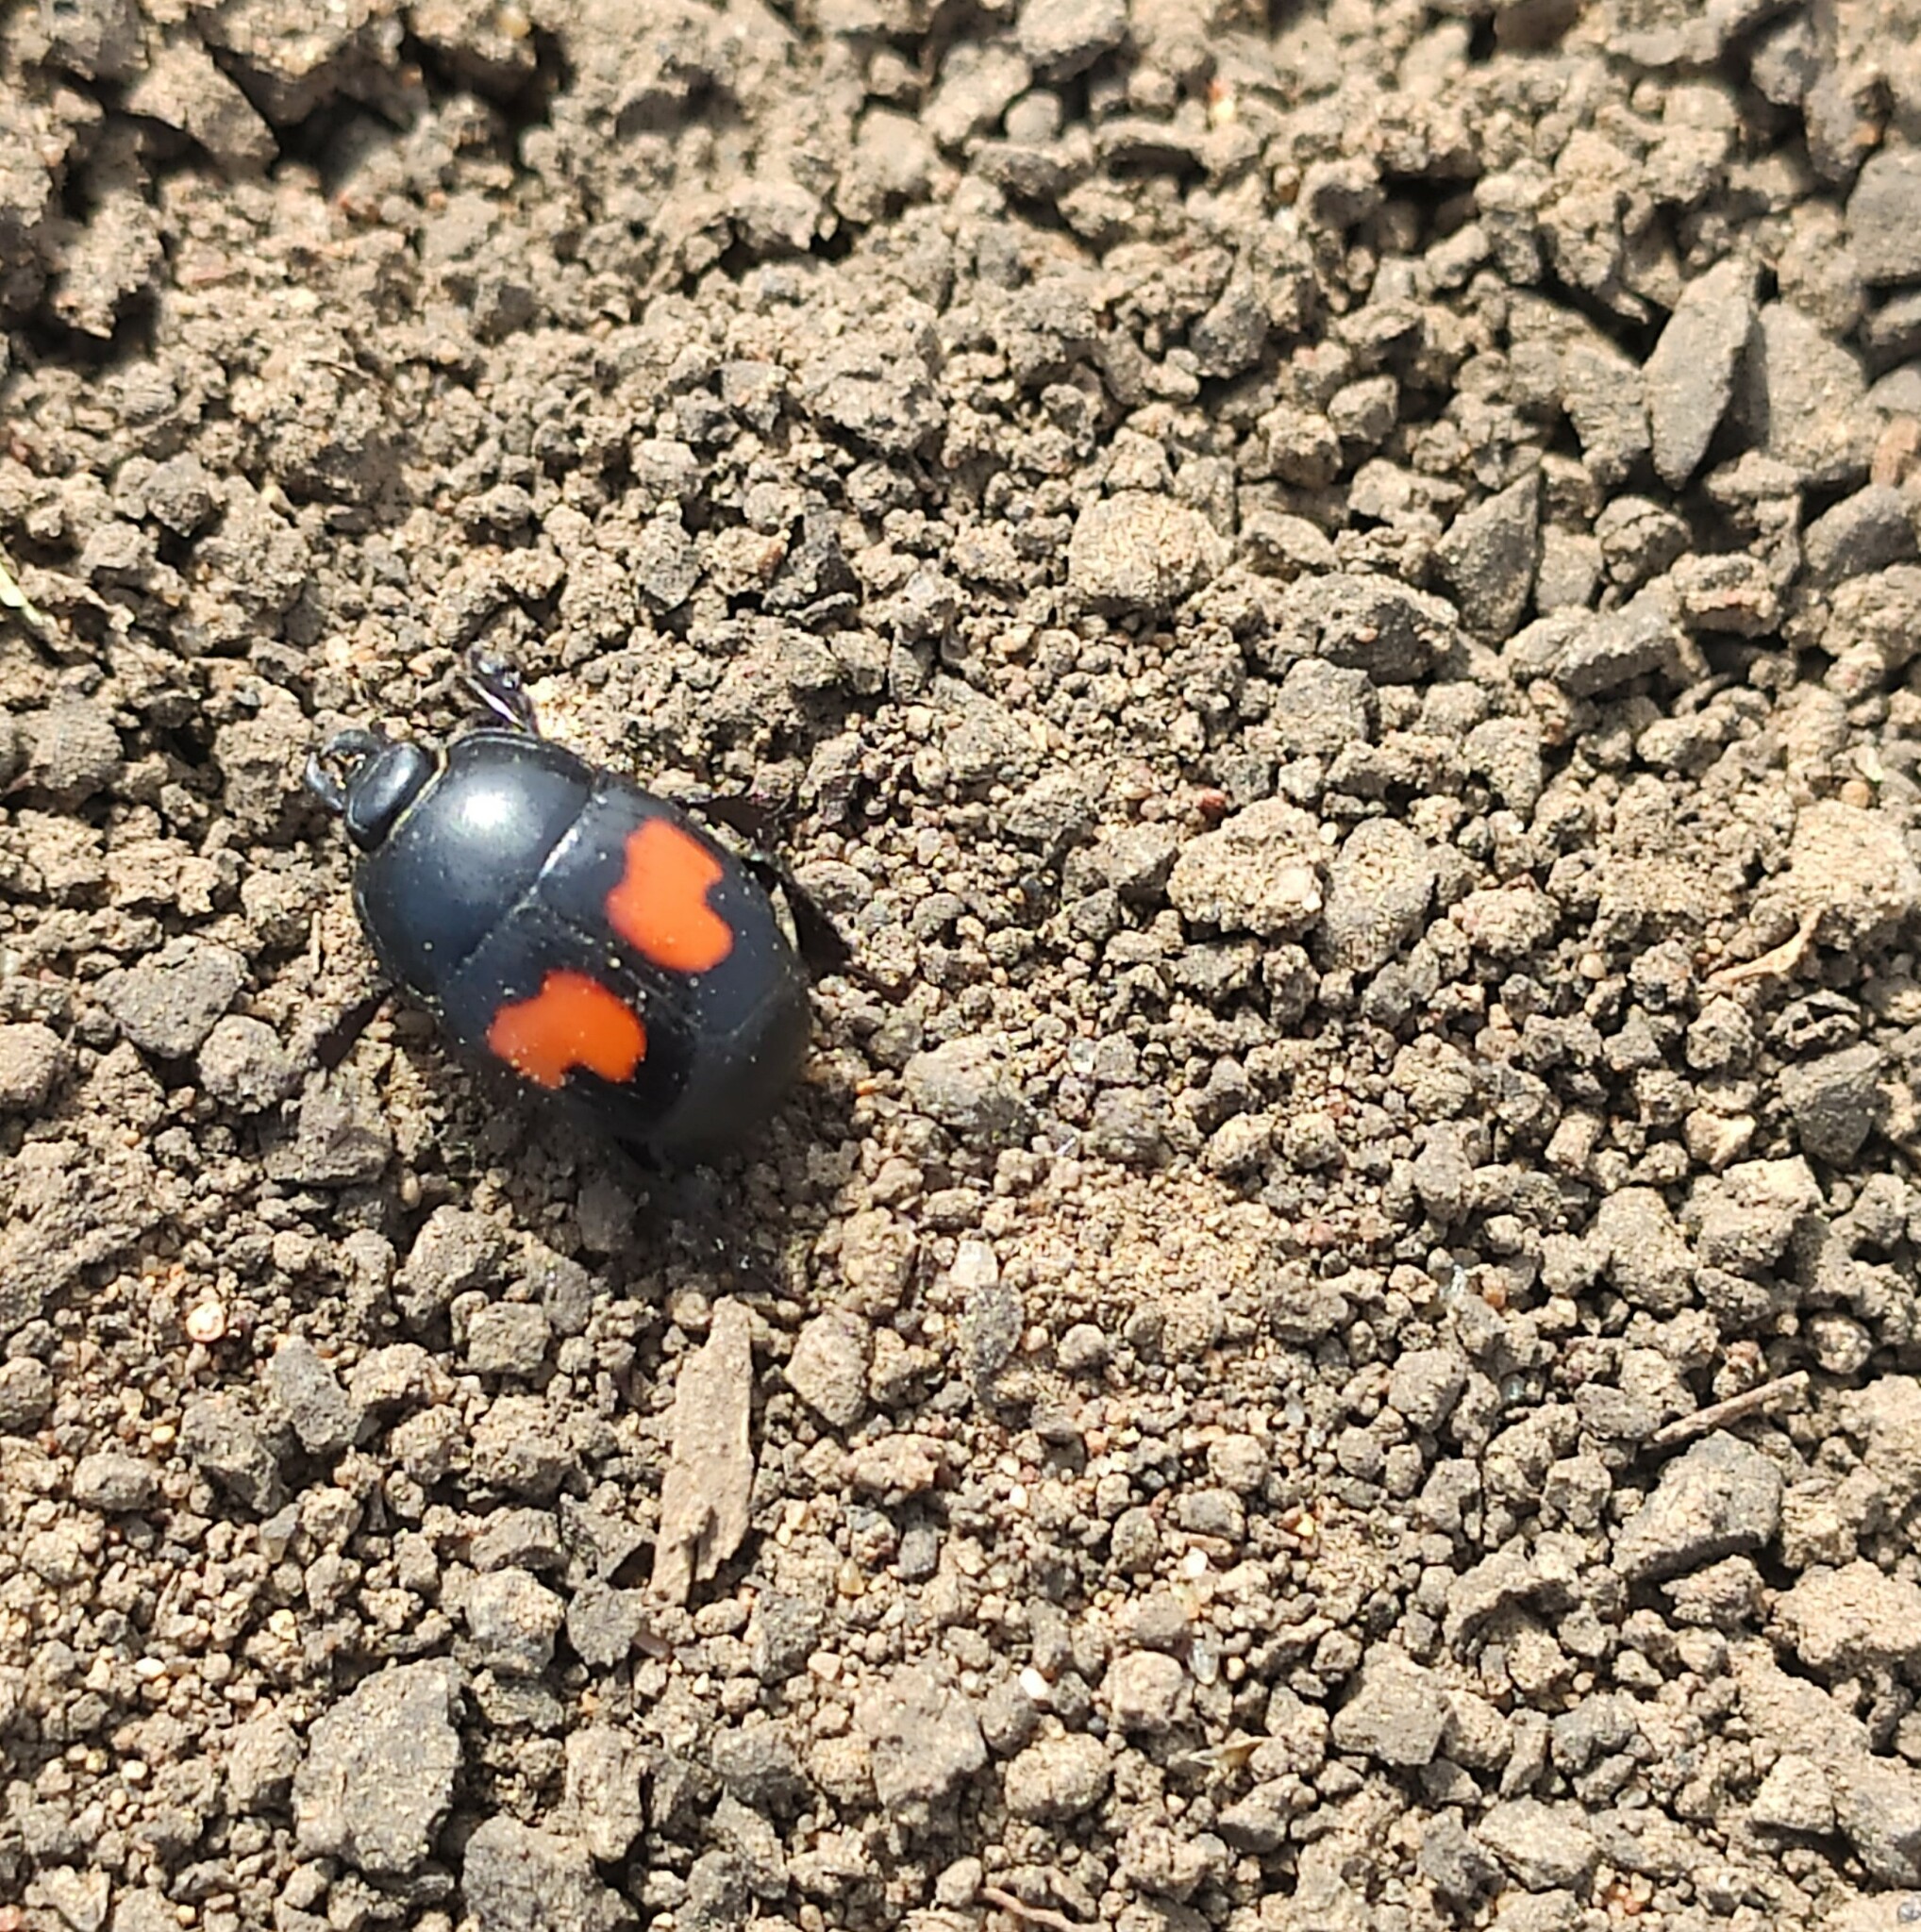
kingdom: Animalia
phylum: Arthropoda
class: Insecta
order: Coleoptera
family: Histeridae
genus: Margarinotus
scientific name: Margarinotus bipustulatus
